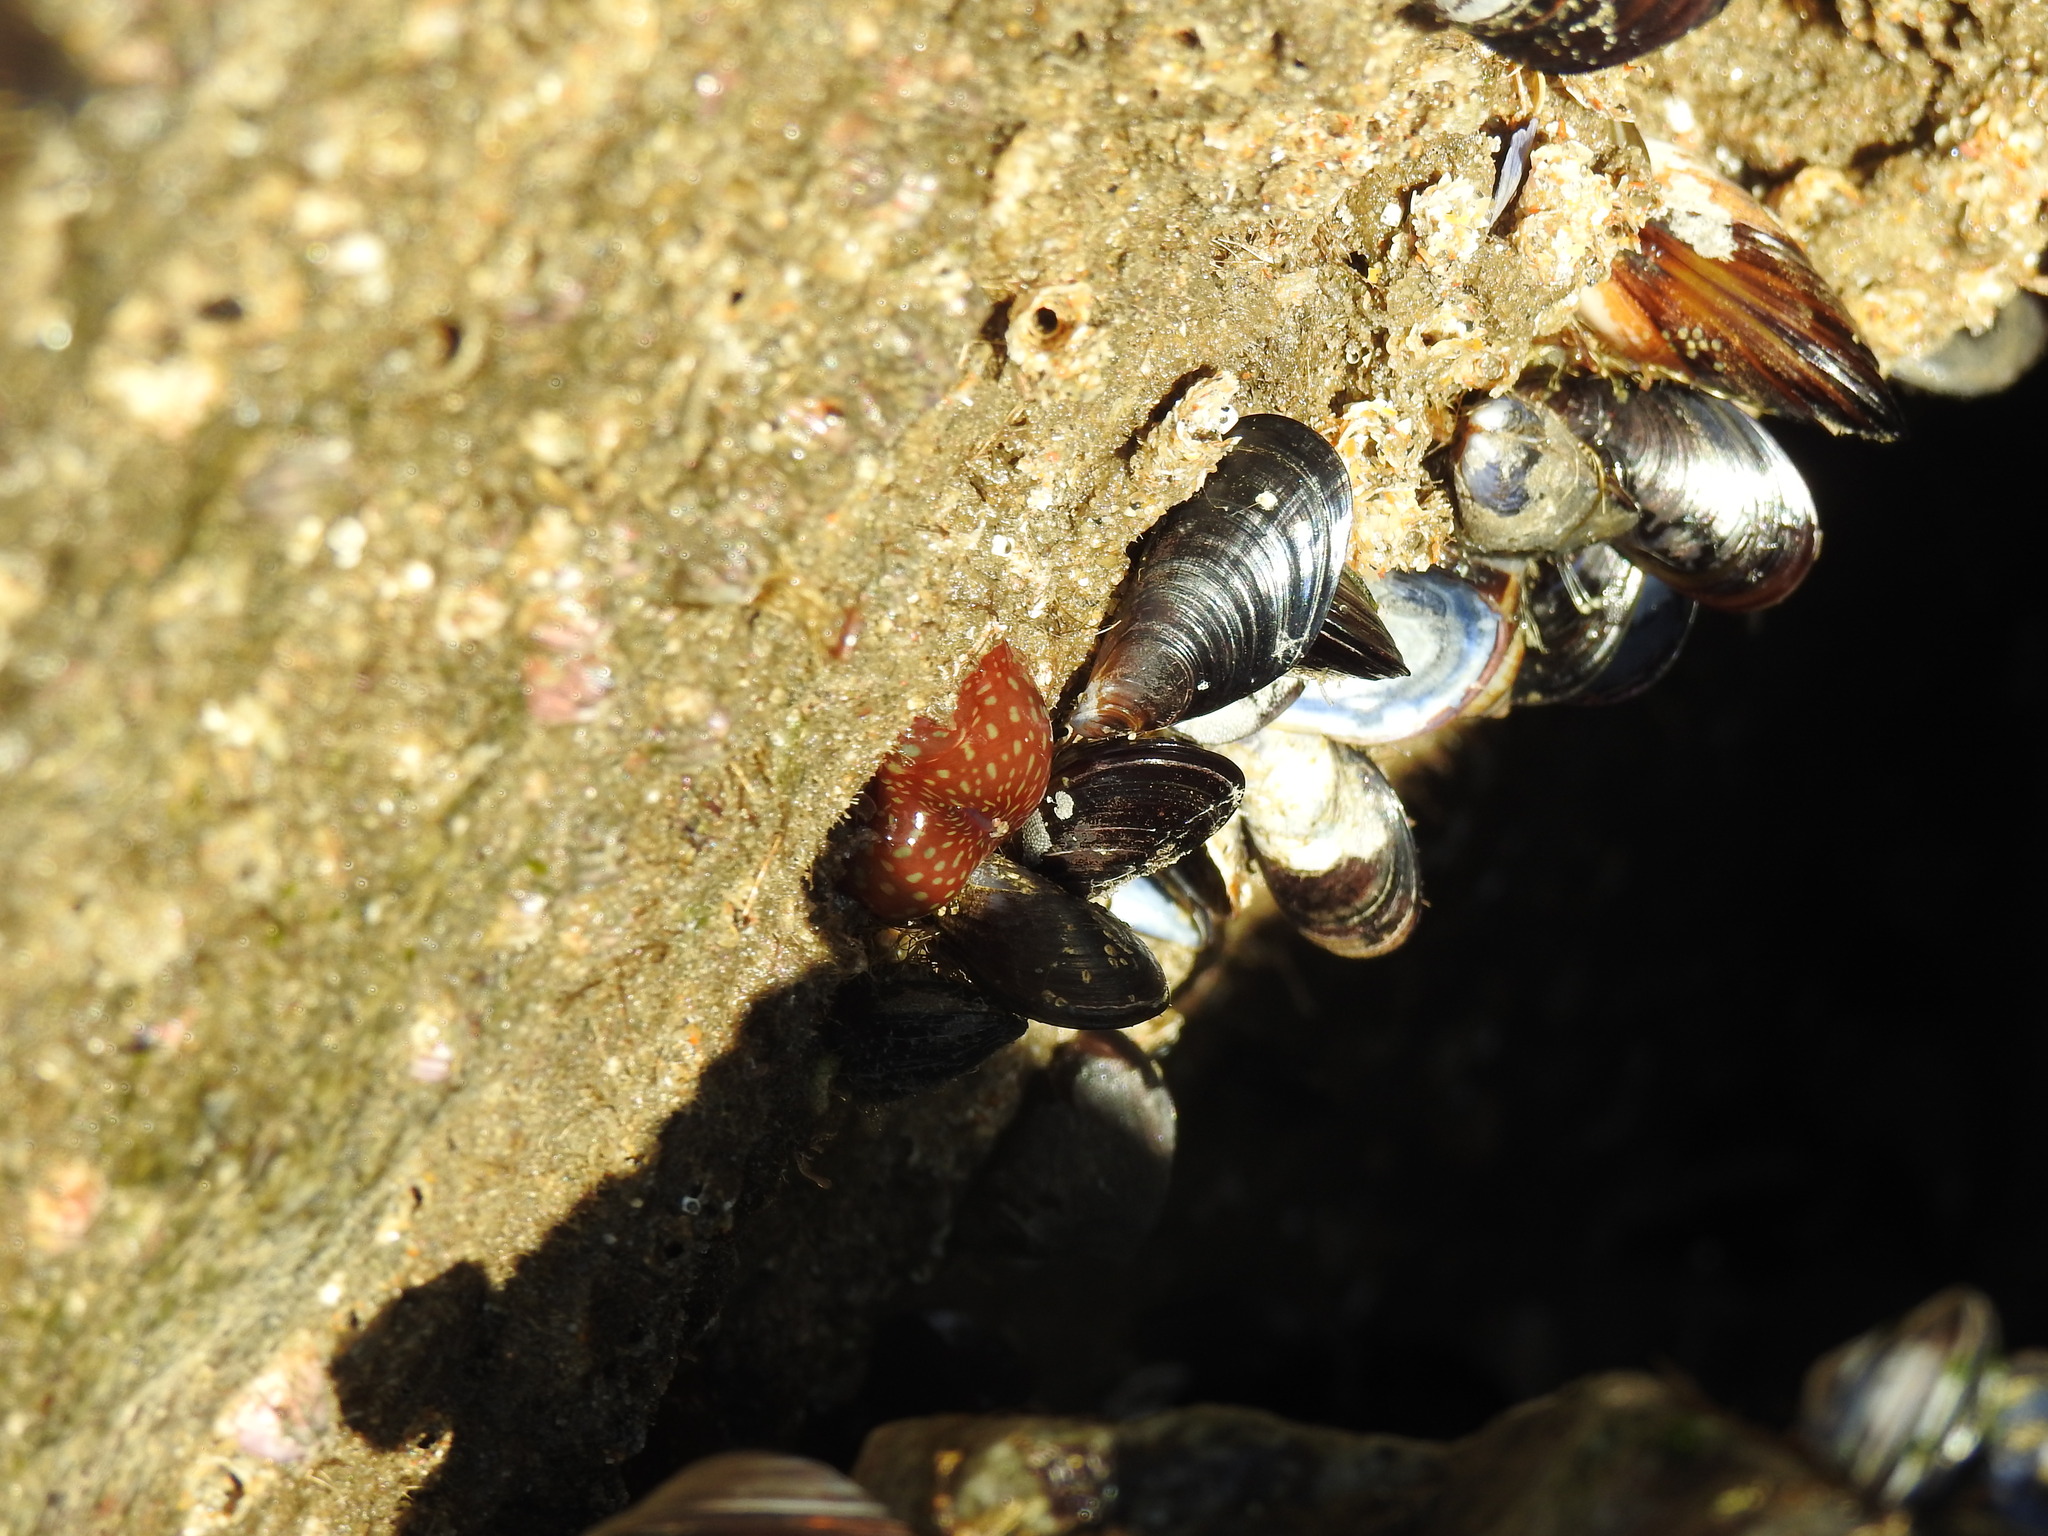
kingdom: Animalia
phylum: Cnidaria
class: Anthozoa
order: Actiniaria
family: Actiniidae
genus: Actinia
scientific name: Actinia fragacea
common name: Strawberry anemone
